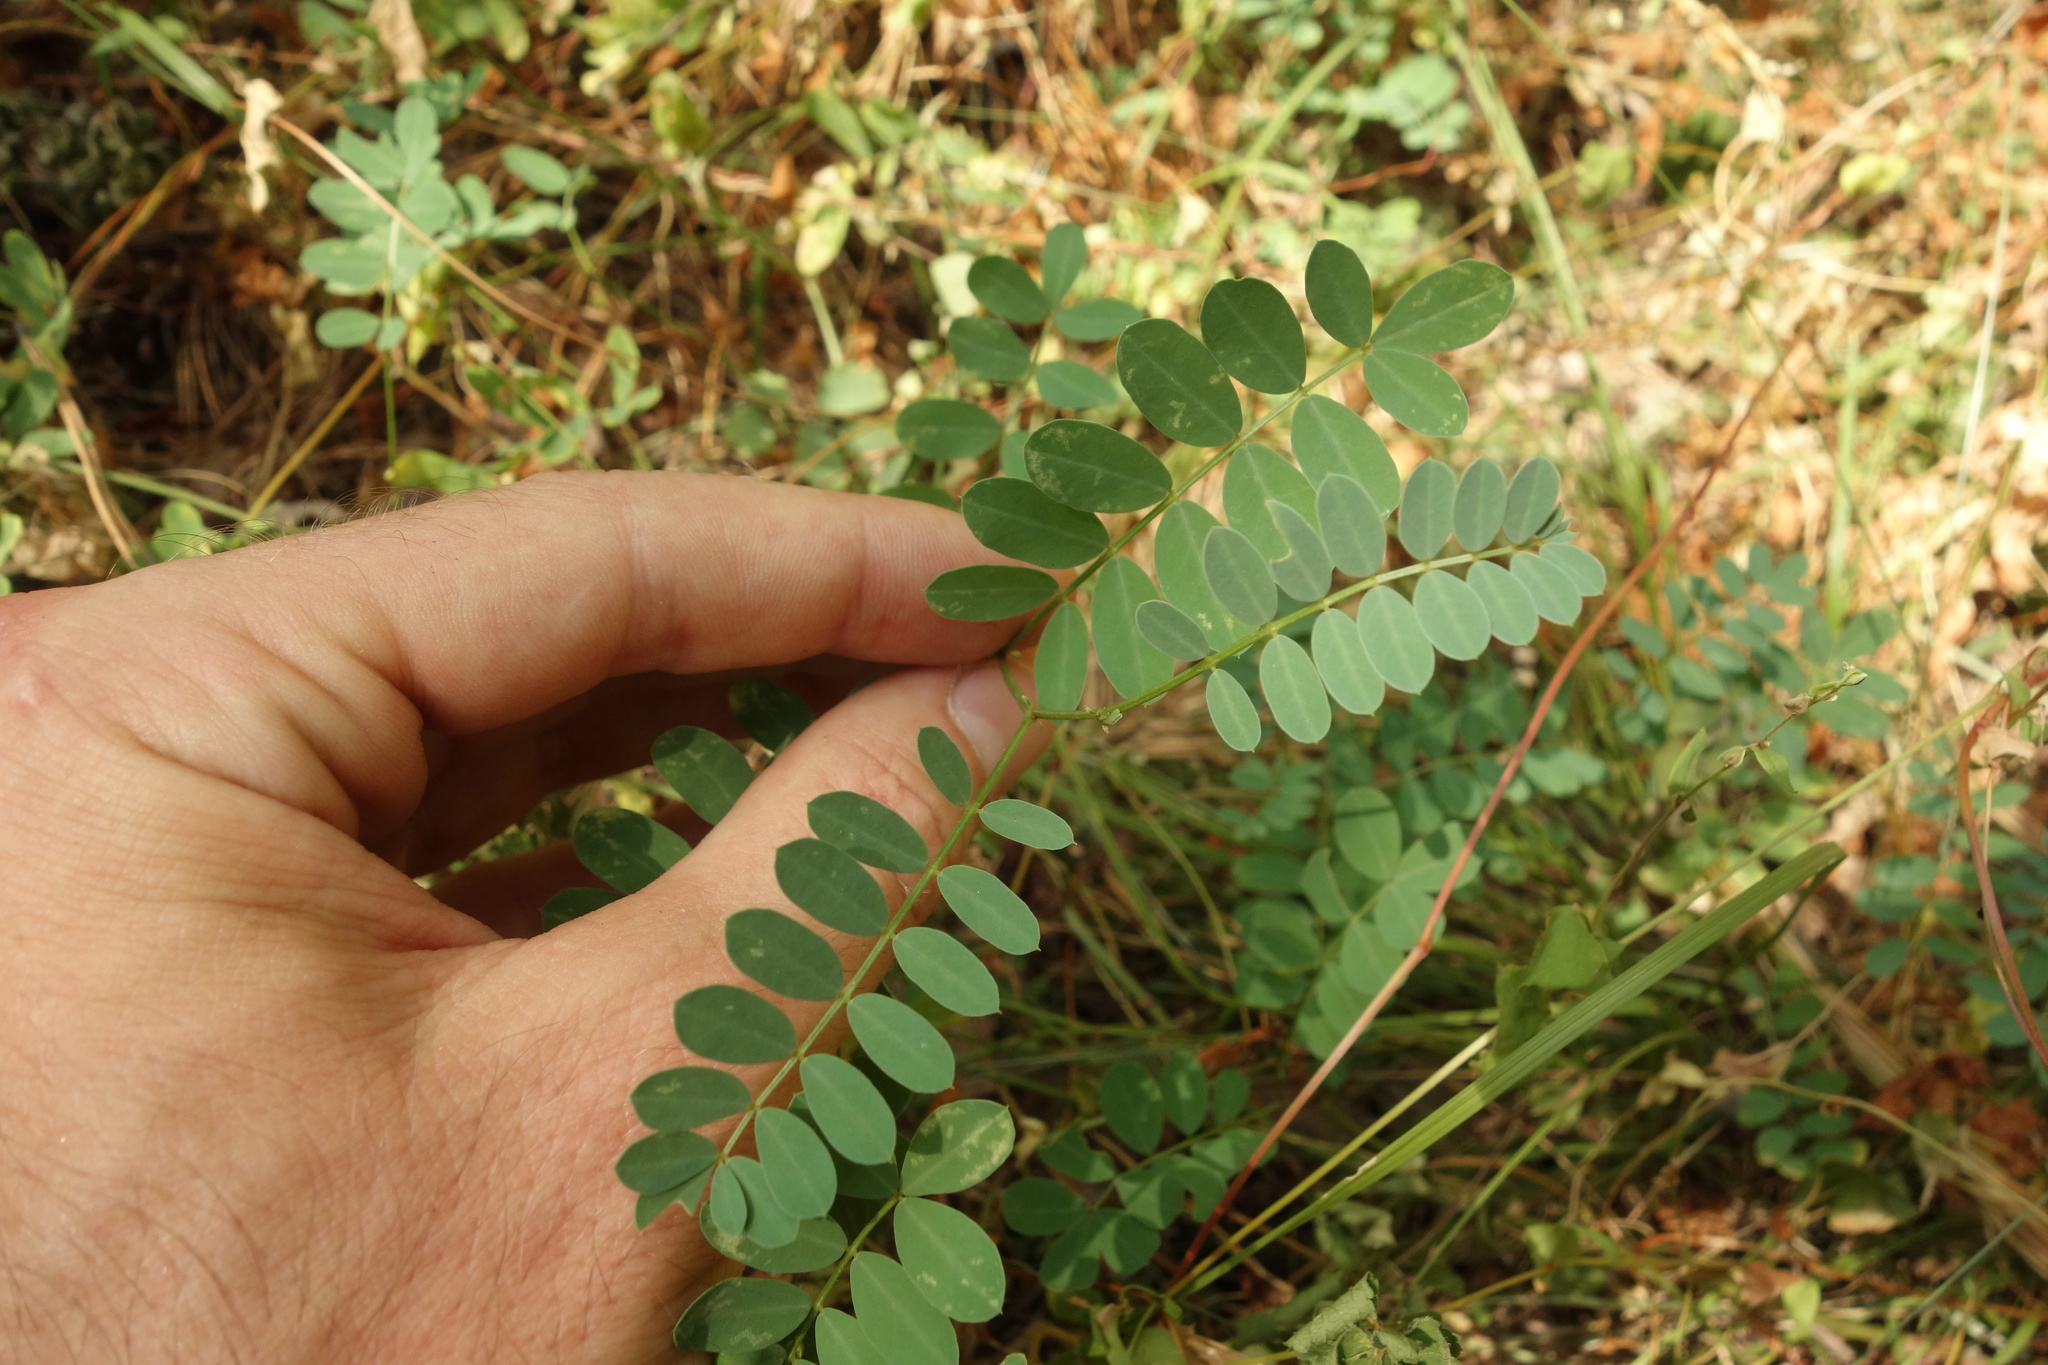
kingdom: Plantae
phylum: Tracheophyta
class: Magnoliopsida
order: Fabales
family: Fabaceae
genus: Coronilla
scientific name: Coronilla varia
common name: Crownvetch
